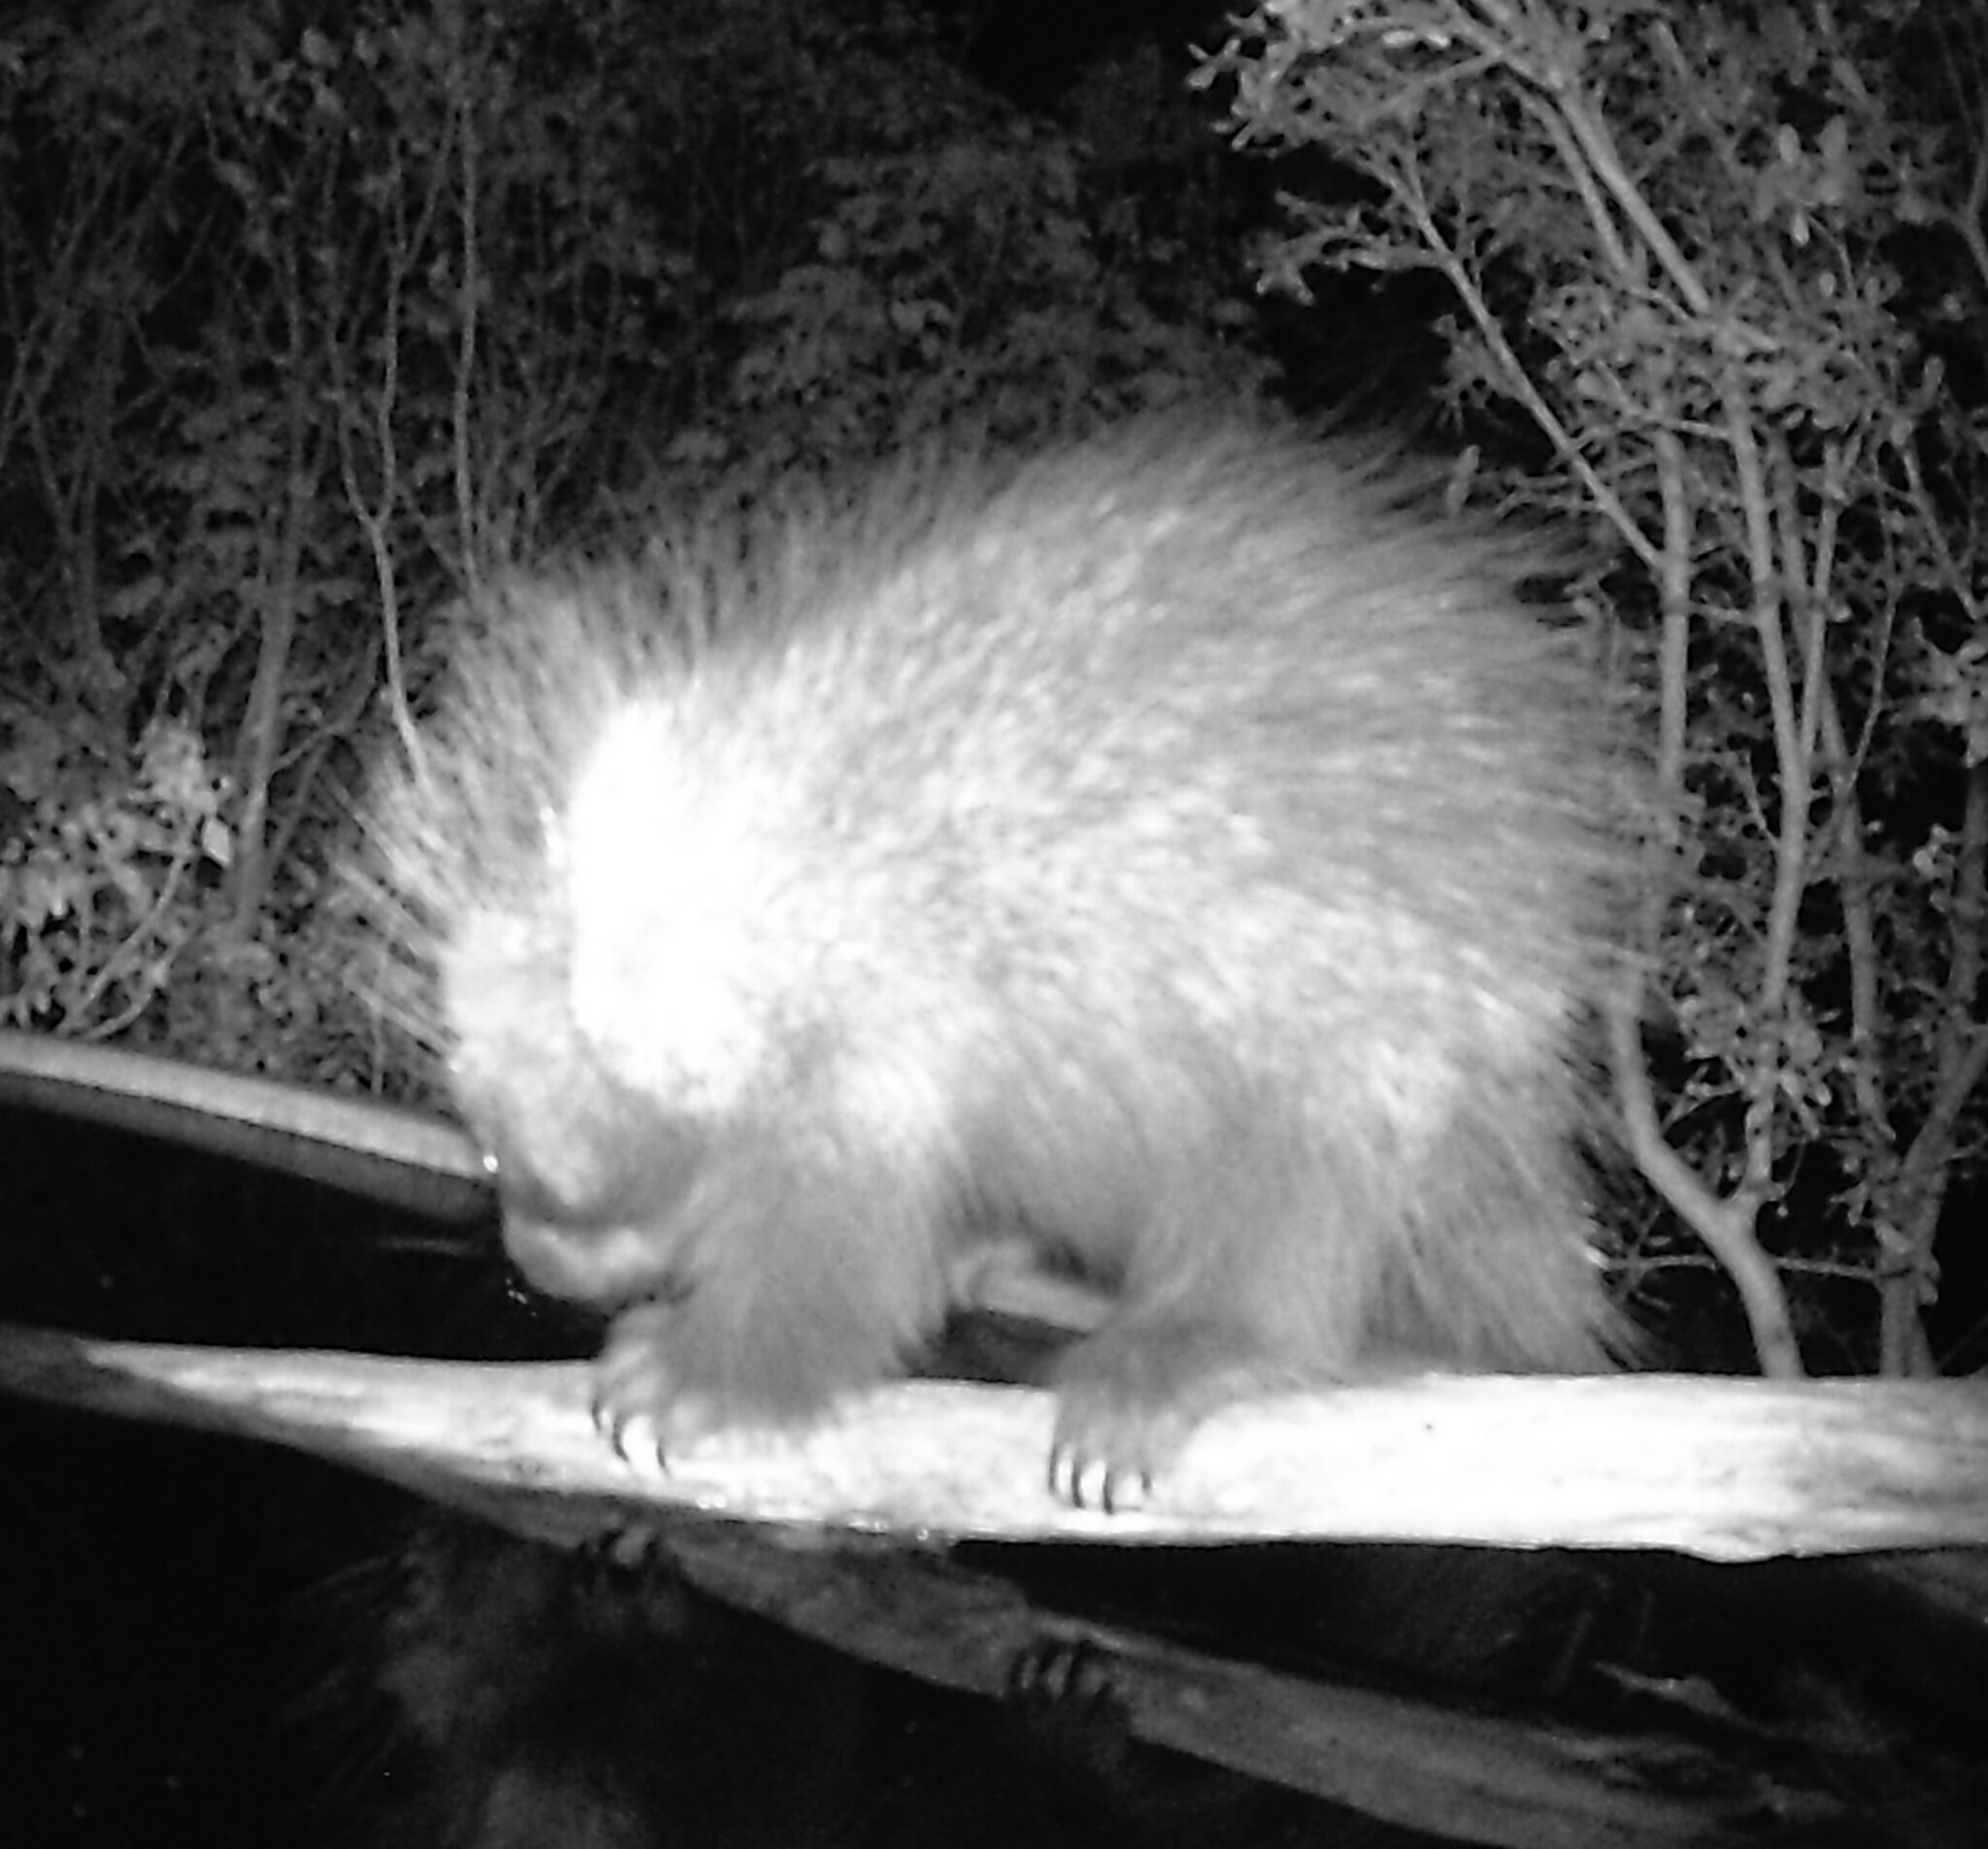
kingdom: Animalia
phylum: Chordata
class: Mammalia
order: Rodentia
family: Erethizontidae
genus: Erethizon
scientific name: Erethizon dorsatus
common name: North american porcupine
